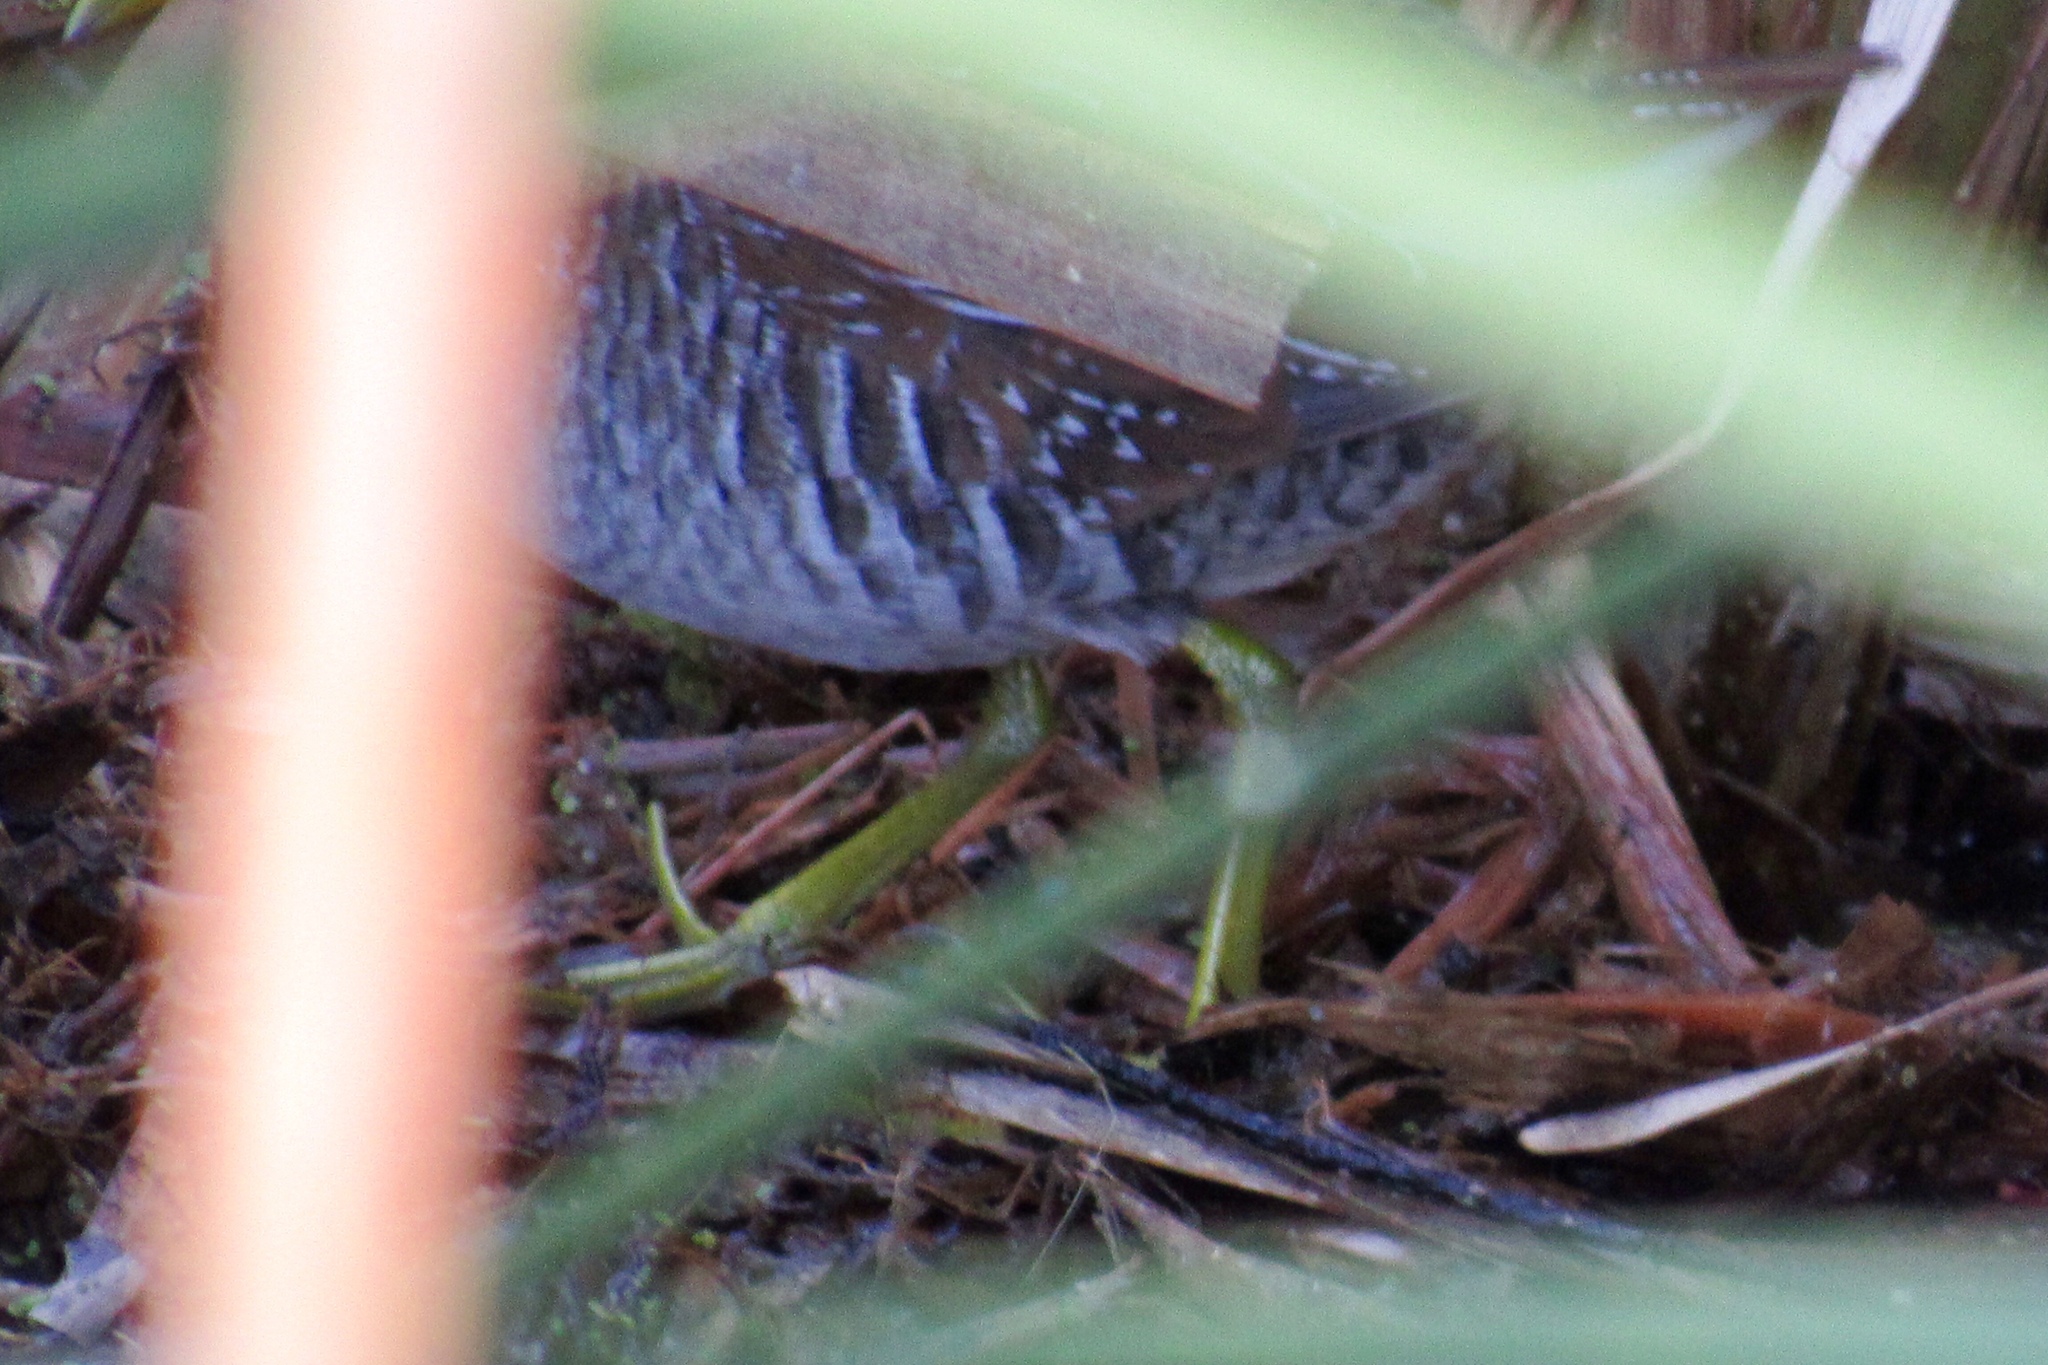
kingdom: Animalia
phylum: Chordata
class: Aves
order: Gruiformes
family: Rallidae
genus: Porzana
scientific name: Porzana carolina
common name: Sora
